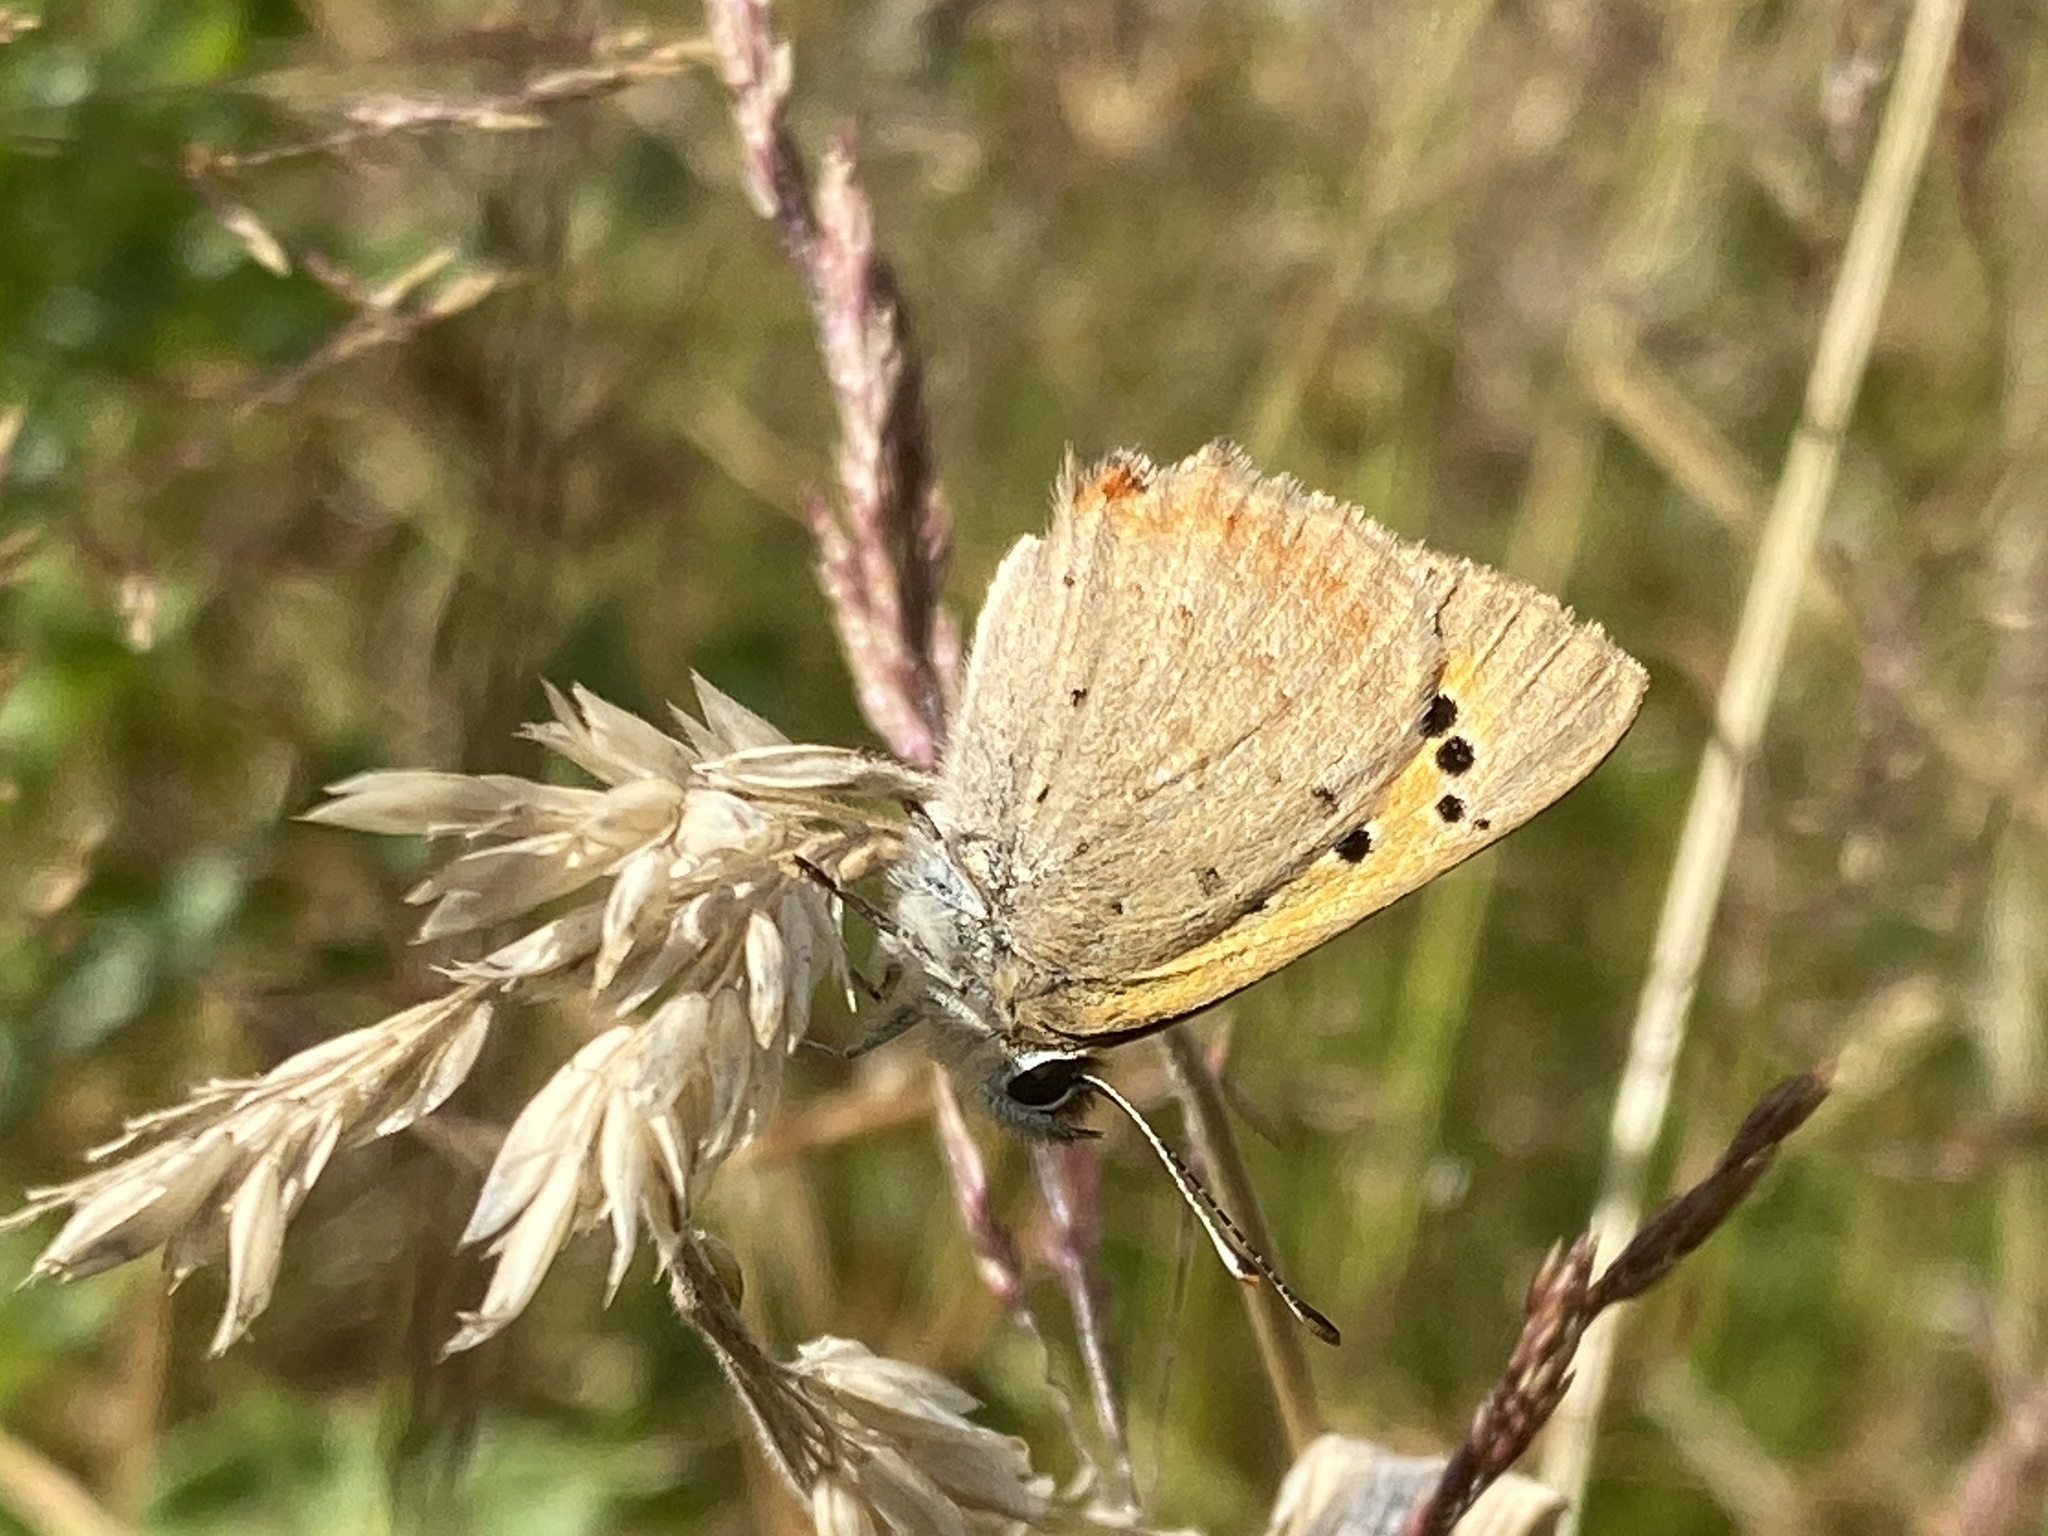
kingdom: Animalia
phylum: Arthropoda
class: Insecta
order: Lepidoptera
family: Lycaenidae
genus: Lycaena
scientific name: Lycaena phlaeas
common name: Small copper
